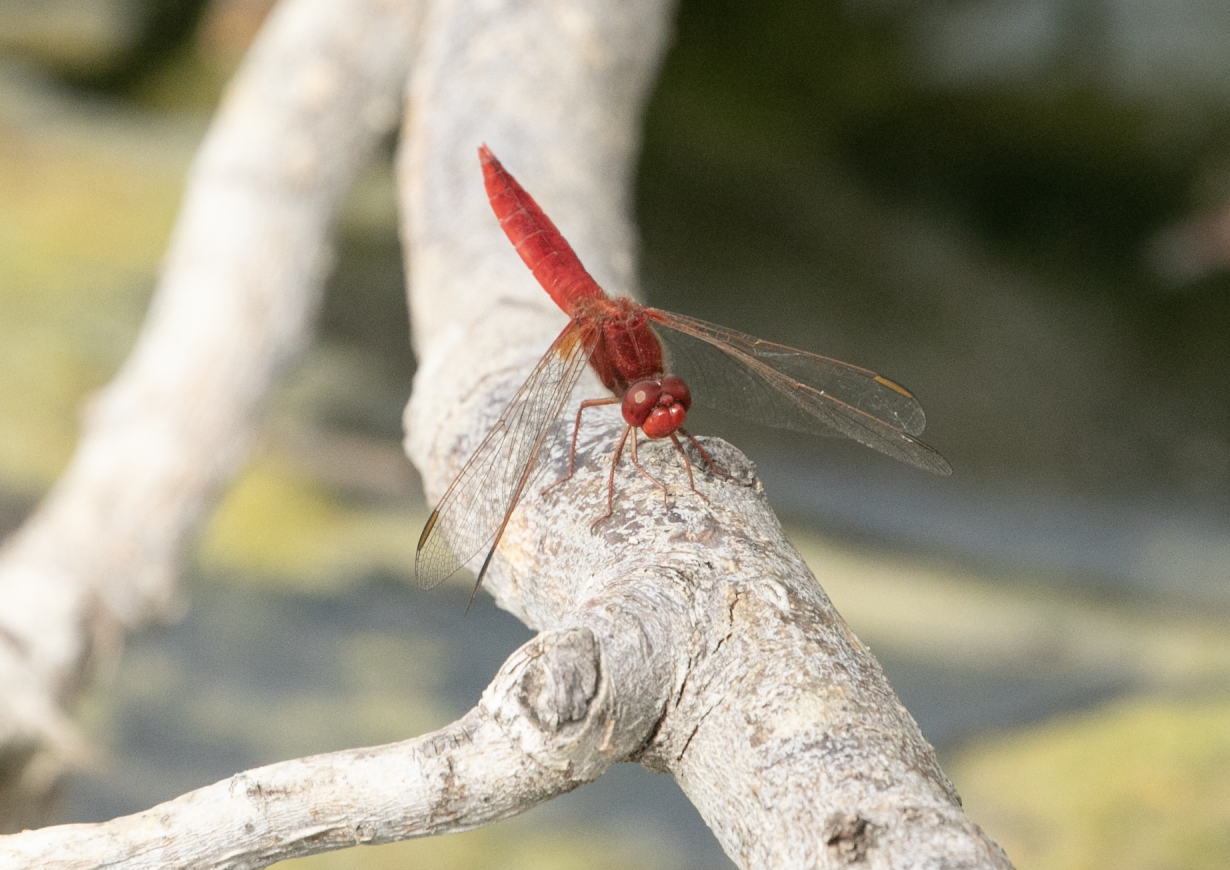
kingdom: Animalia
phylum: Arthropoda
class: Insecta
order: Odonata
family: Libellulidae
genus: Crocothemis
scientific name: Crocothemis erythraea
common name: Scarlet dragonfly
